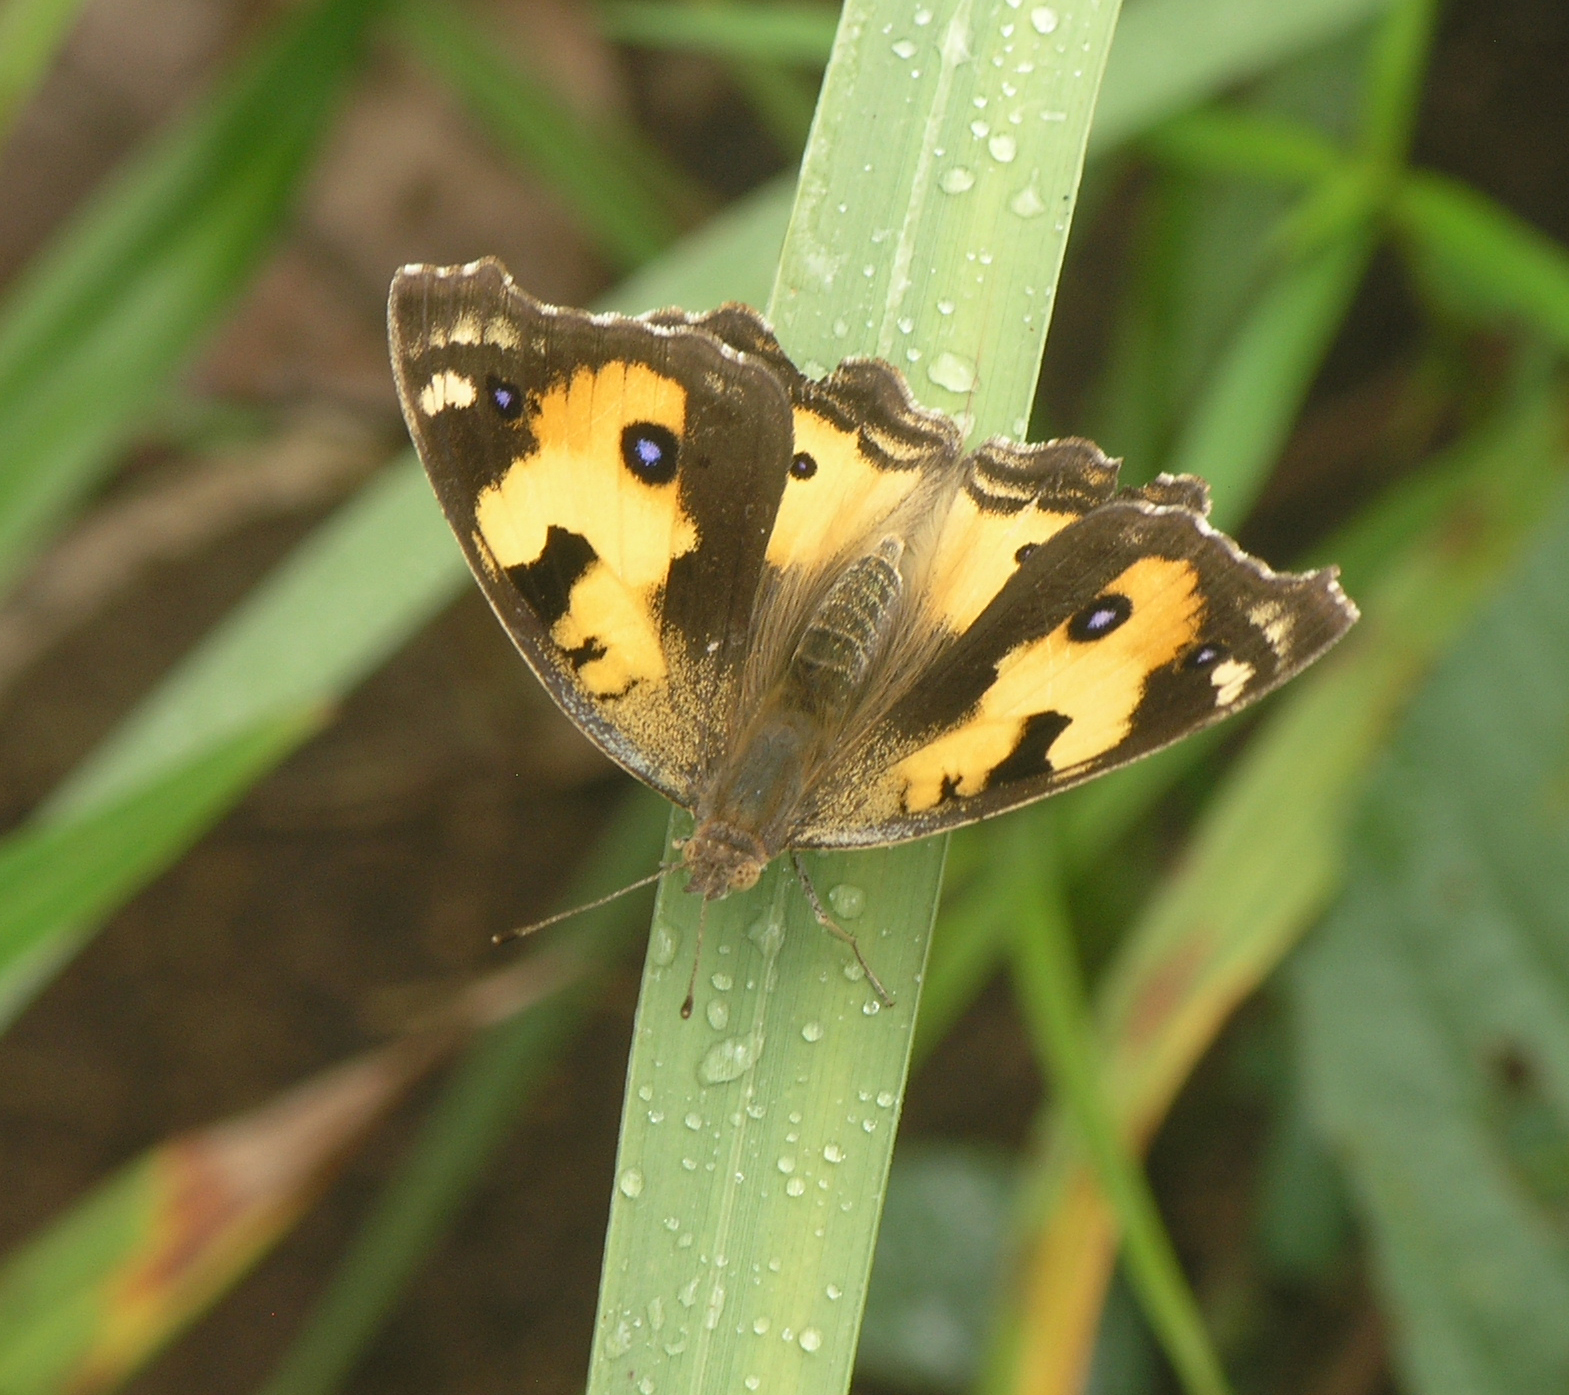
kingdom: Animalia
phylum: Arthropoda
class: Insecta
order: Lepidoptera
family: Nymphalidae
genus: Junonia
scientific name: Junonia hierta
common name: Yellow pansy
